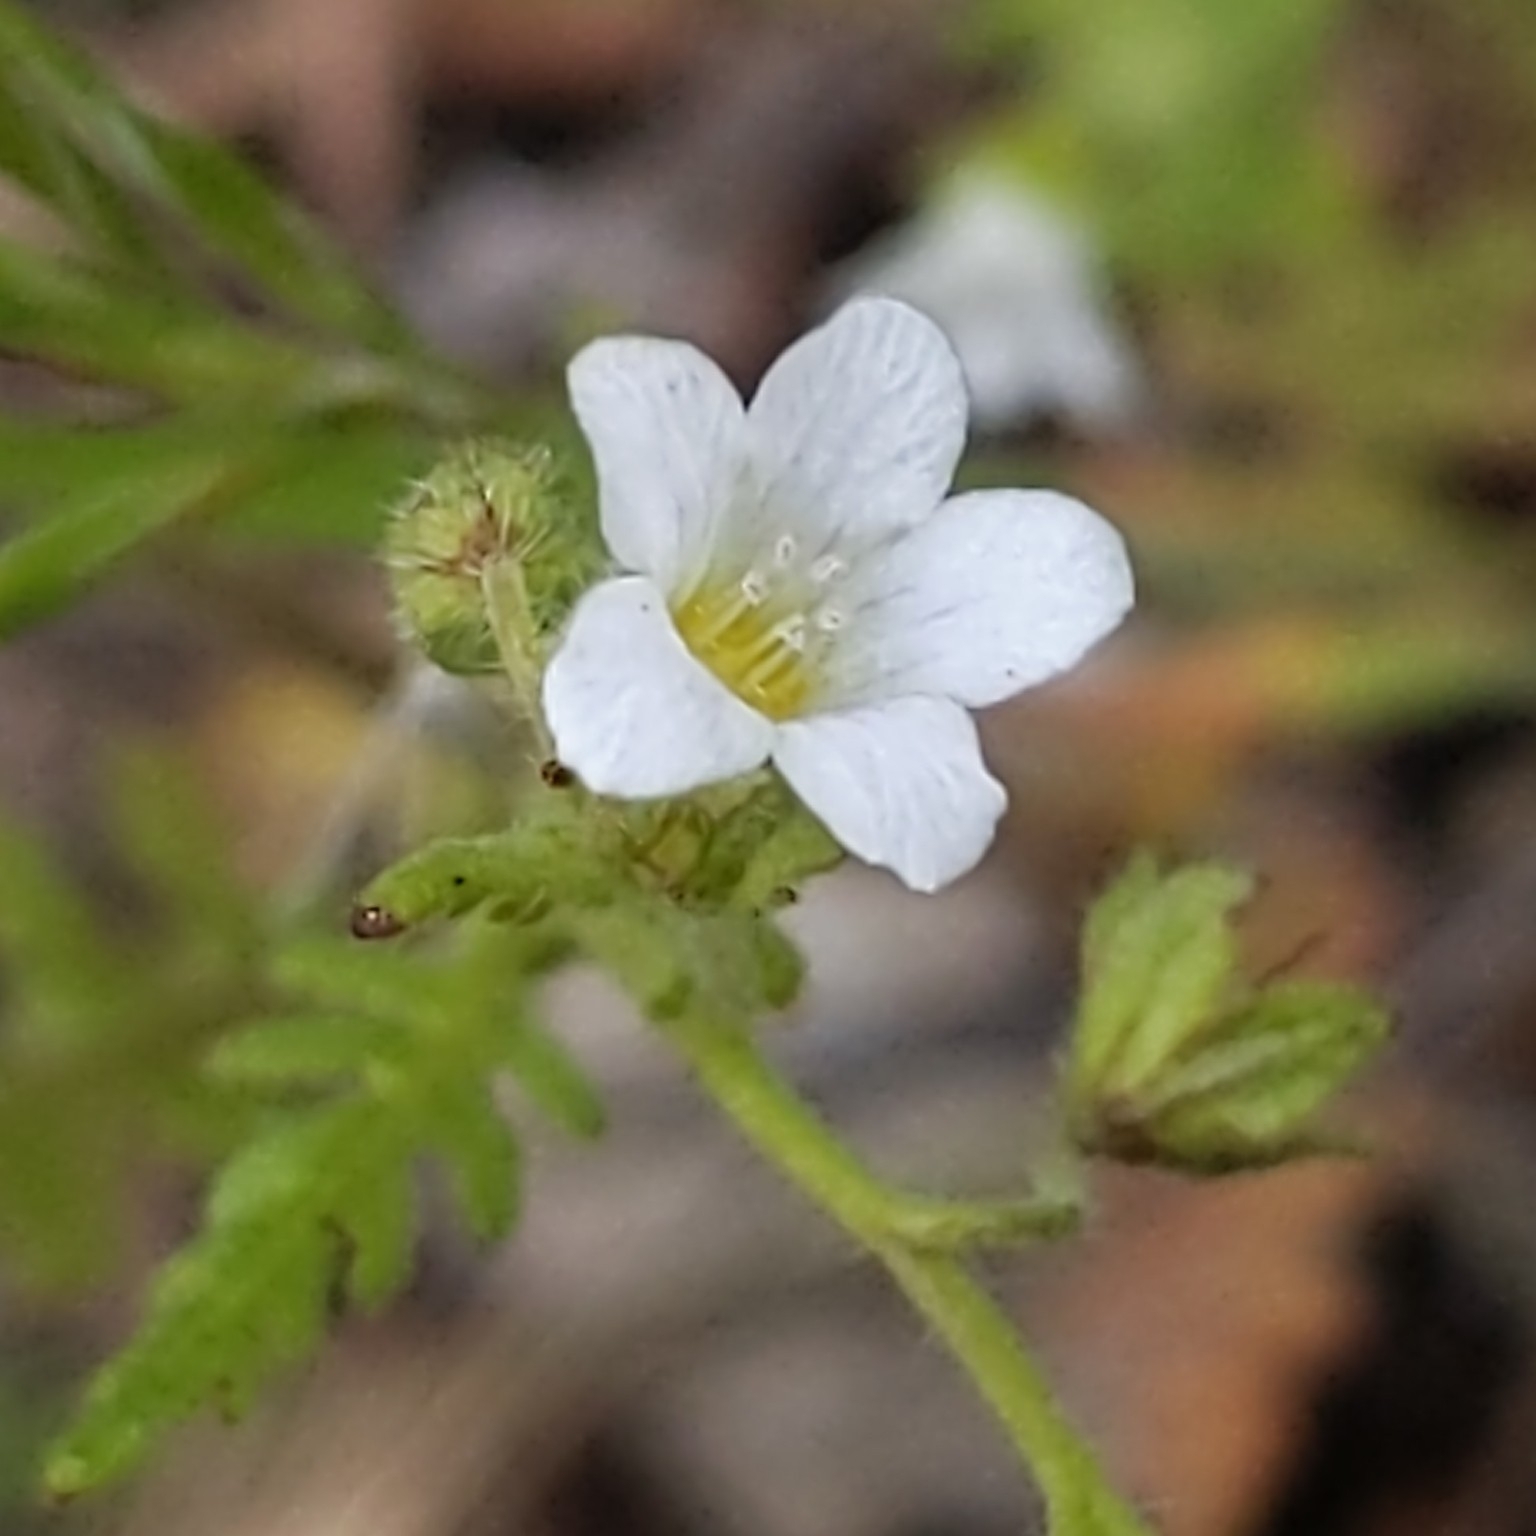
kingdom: Plantae
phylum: Tracheophyta
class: Magnoliopsida
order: Boraginales
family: Hydrophyllaceae
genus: Eucrypta
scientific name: Eucrypta chrysanthemifolia
